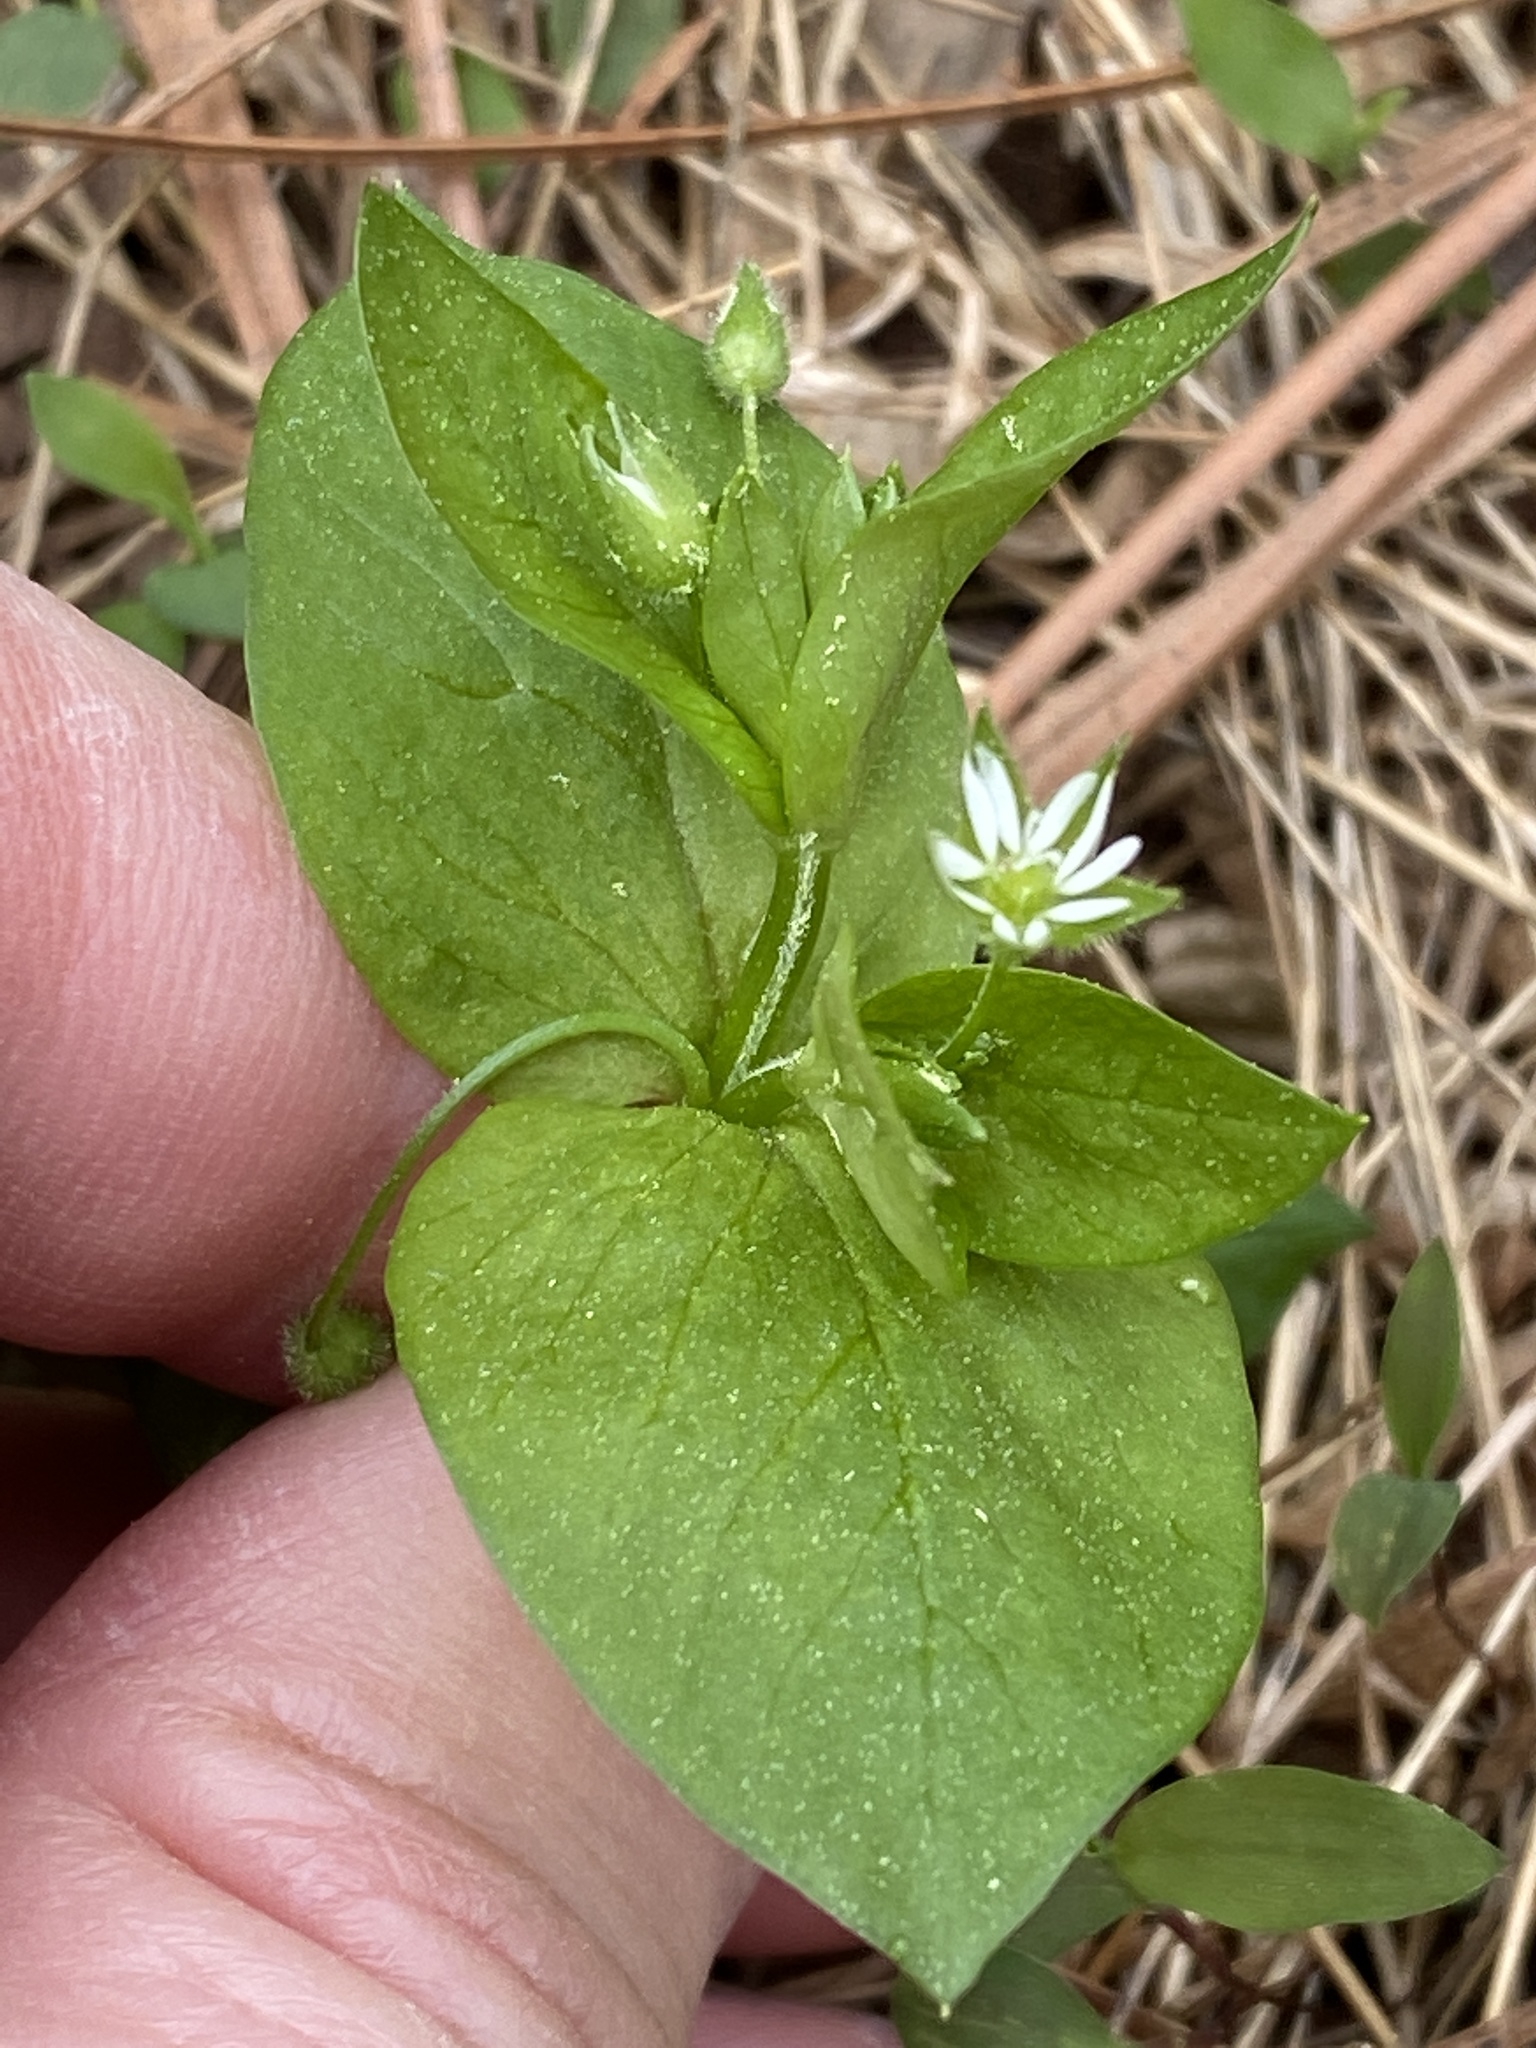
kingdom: Plantae
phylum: Tracheophyta
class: Magnoliopsida
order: Caryophyllales
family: Caryophyllaceae
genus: Stellaria
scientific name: Stellaria media
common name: Common chickweed
